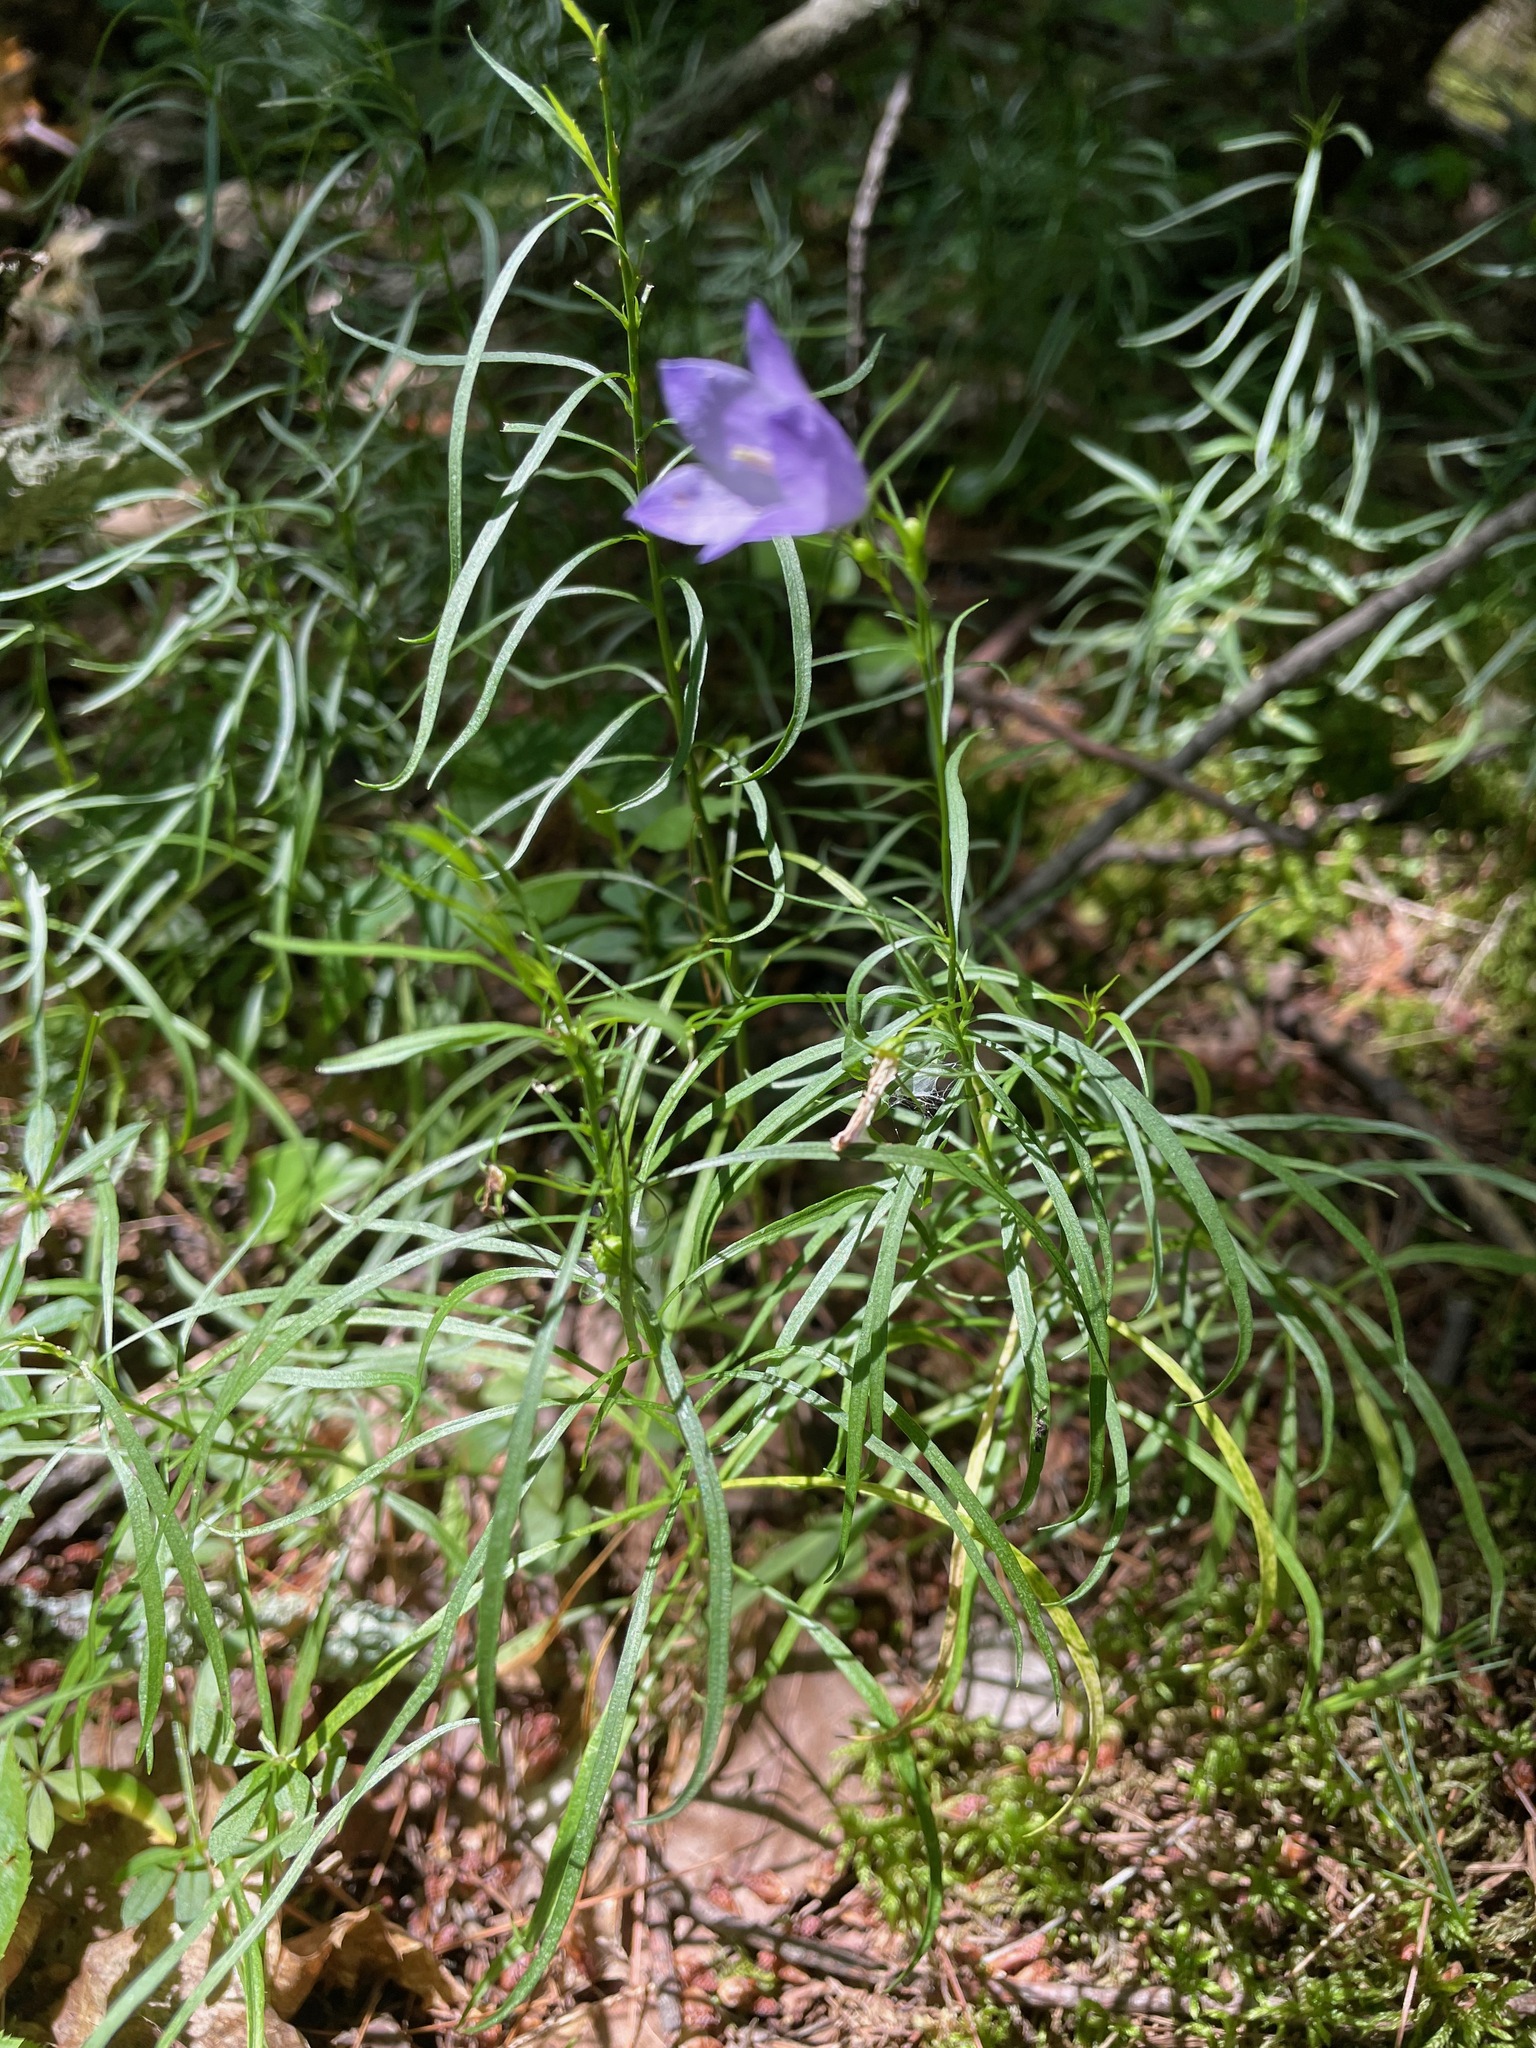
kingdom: Plantae
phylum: Tracheophyta
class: Magnoliopsida
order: Asterales
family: Campanulaceae
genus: Campanula
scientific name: Campanula intercedens
